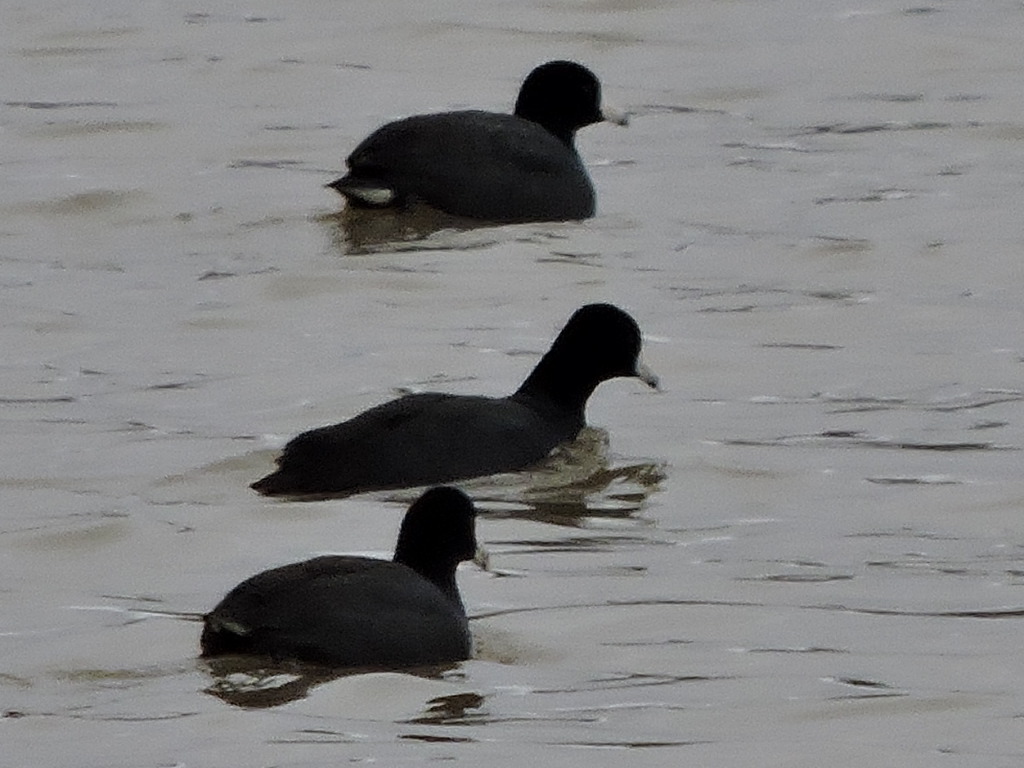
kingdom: Animalia
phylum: Chordata
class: Aves
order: Gruiformes
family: Rallidae
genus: Fulica
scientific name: Fulica americana
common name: American coot
